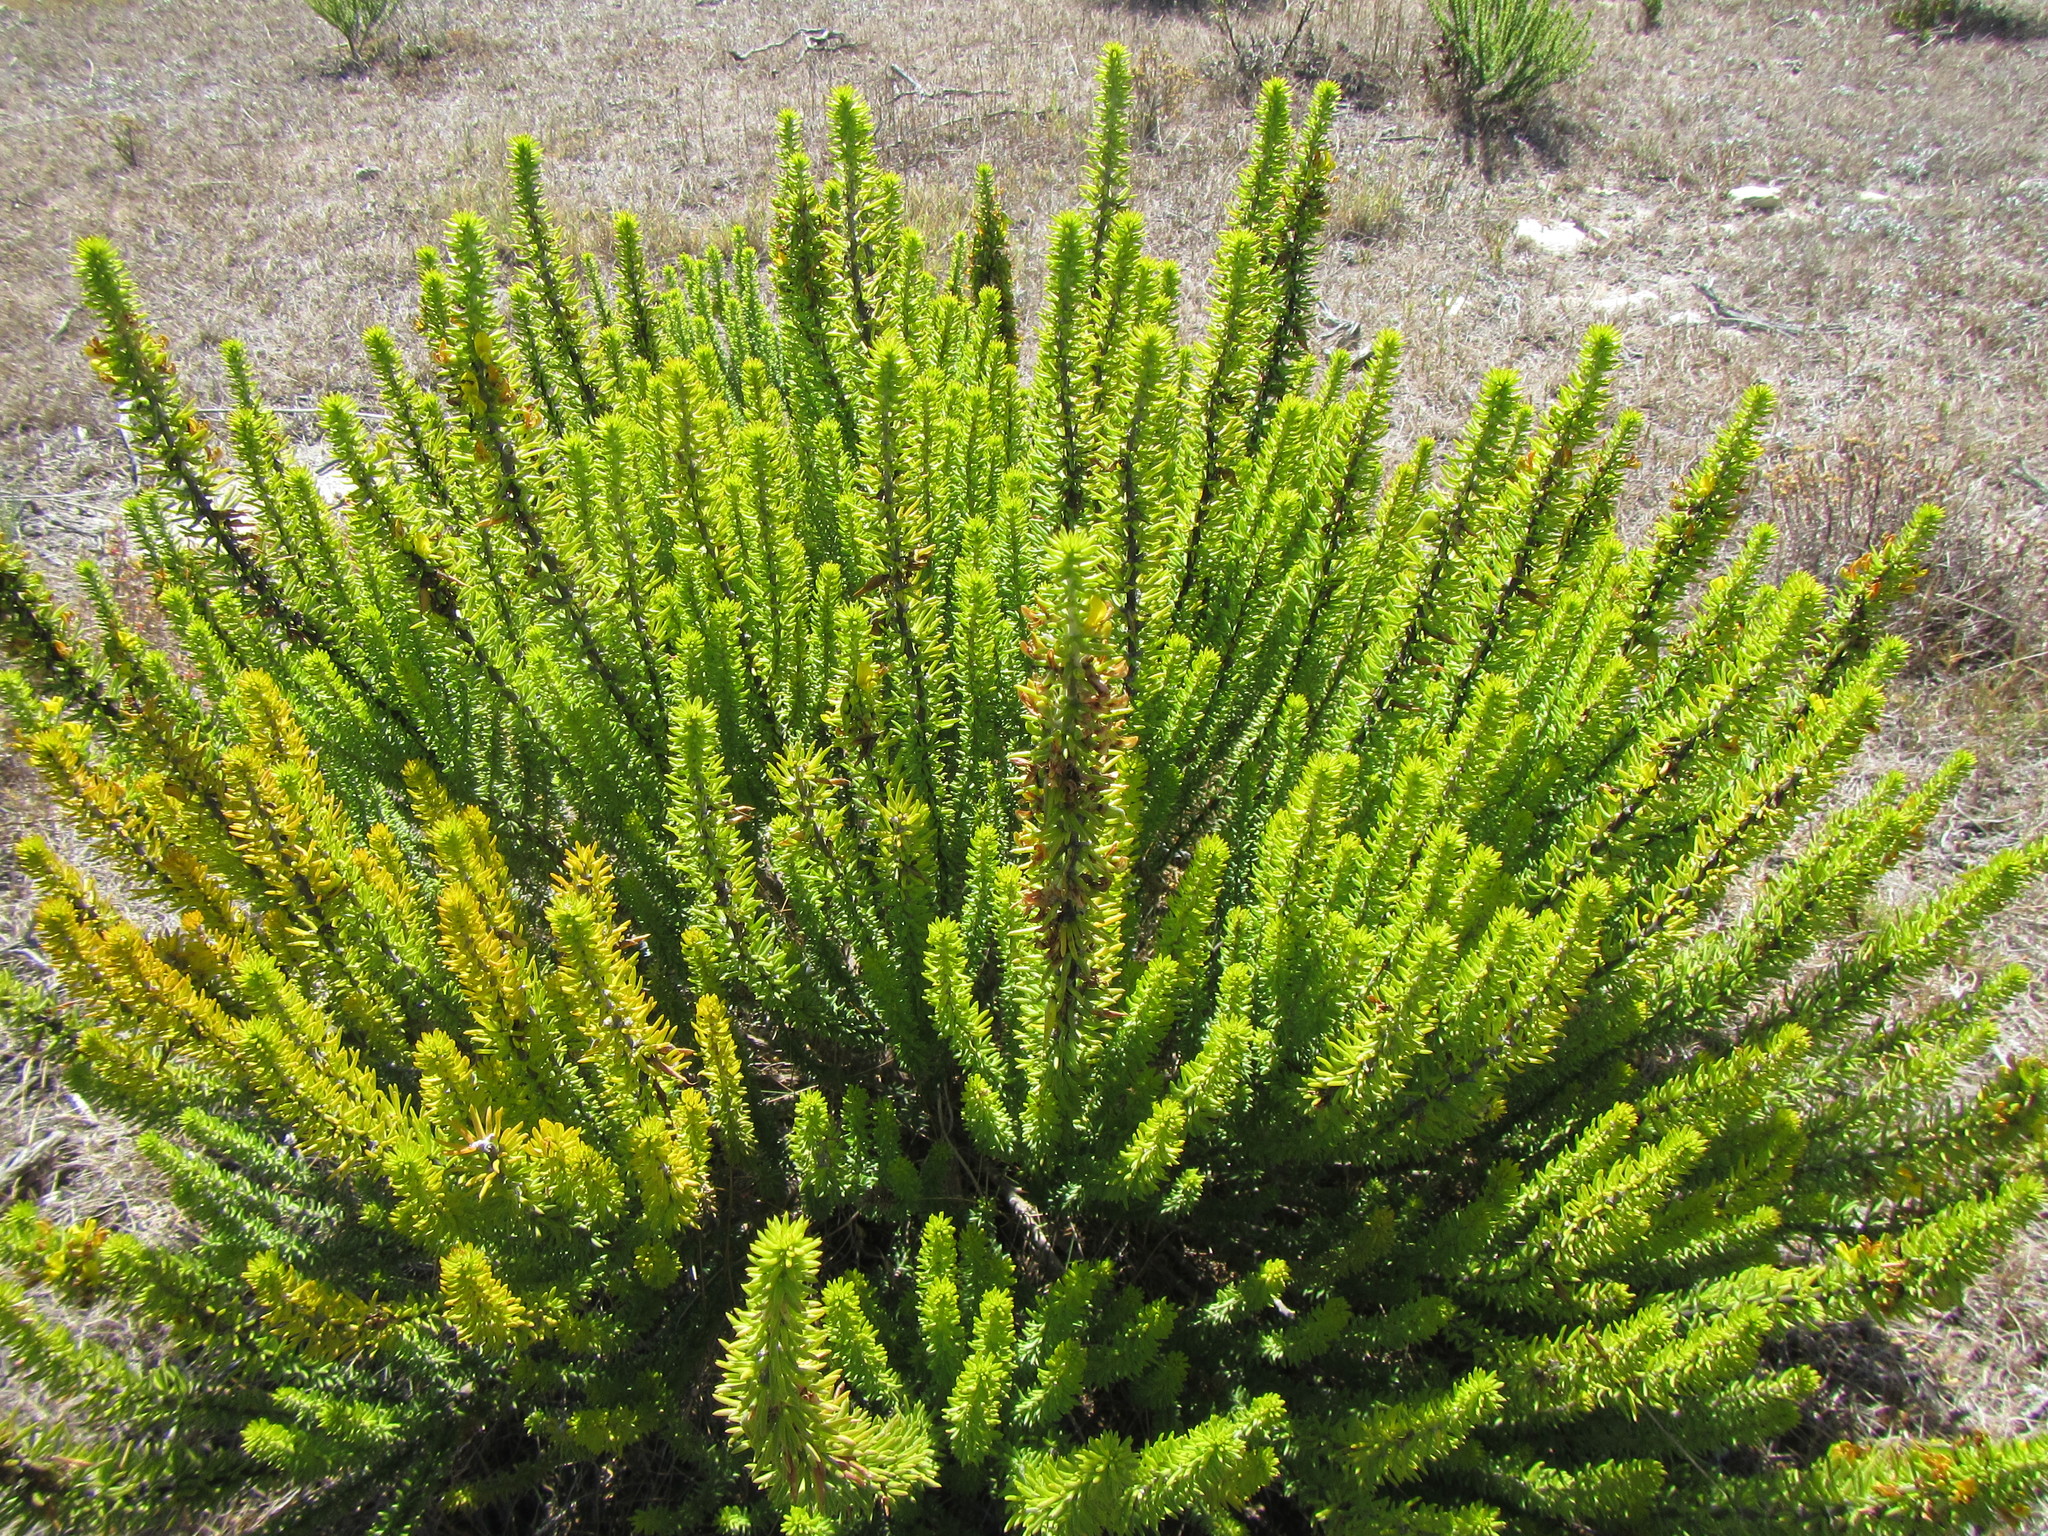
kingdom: Plantae
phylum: Tracheophyta
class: Magnoliopsida
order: Fabales
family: Fabaceae
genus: Aspalathus
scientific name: Aspalathus pinguis
